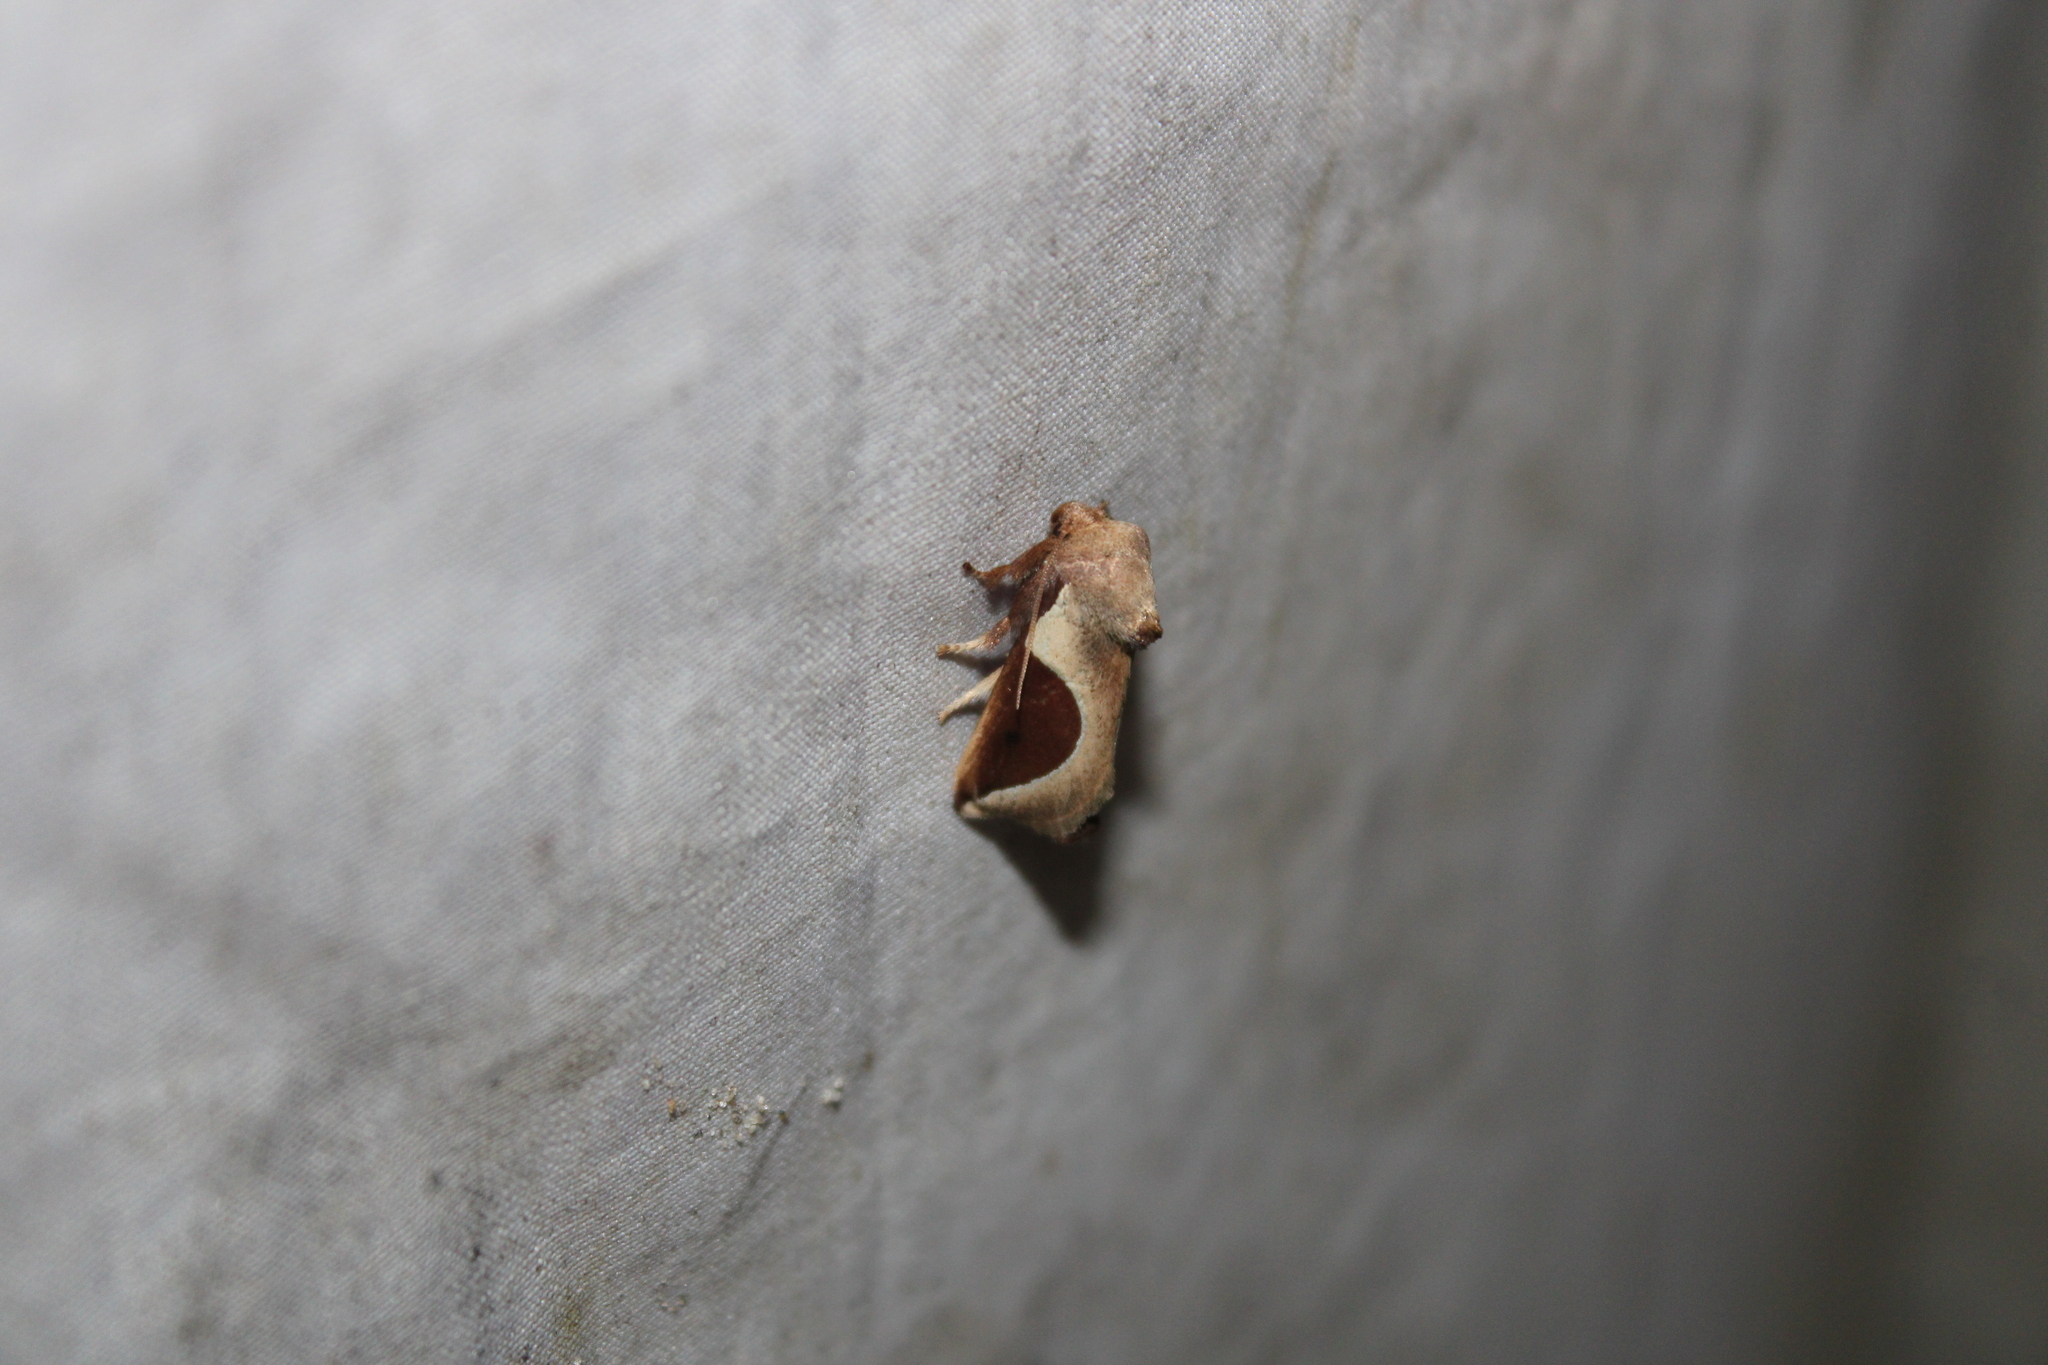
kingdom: Animalia
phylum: Arthropoda
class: Insecta
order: Lepidoptera
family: Limacodidae
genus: Prolimacodes
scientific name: Prolimacodes badia
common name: Skiff moth
